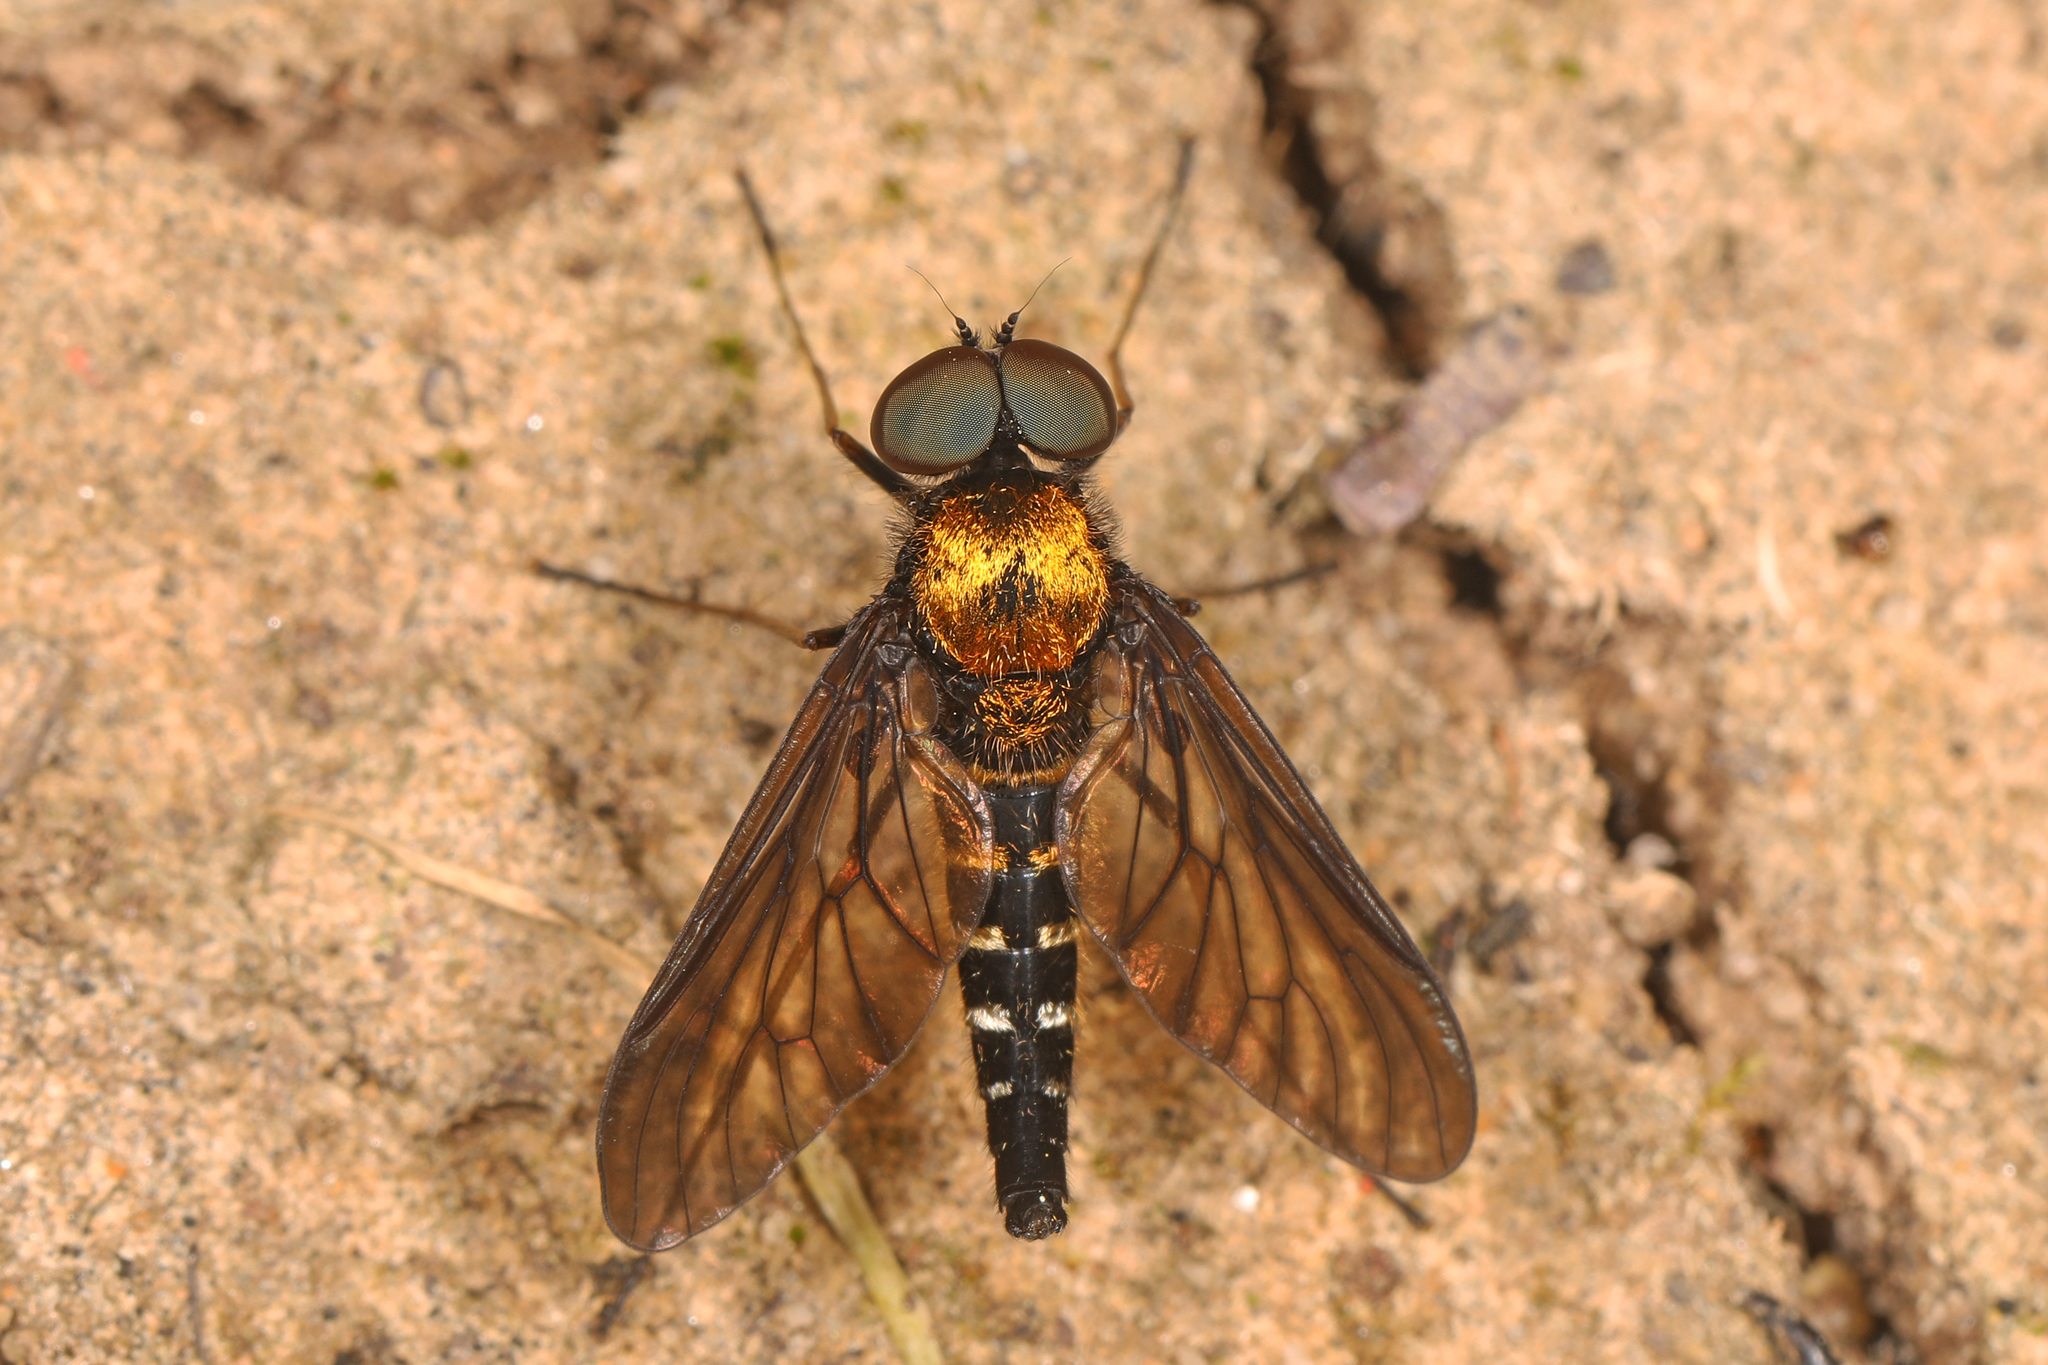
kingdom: Animalia
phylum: Arthropoda
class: Insecta
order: Diptera
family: Rhagionidae
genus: Chrysopilus
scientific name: Chrysopilus thoracicus
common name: Golden-backed snipe fly
